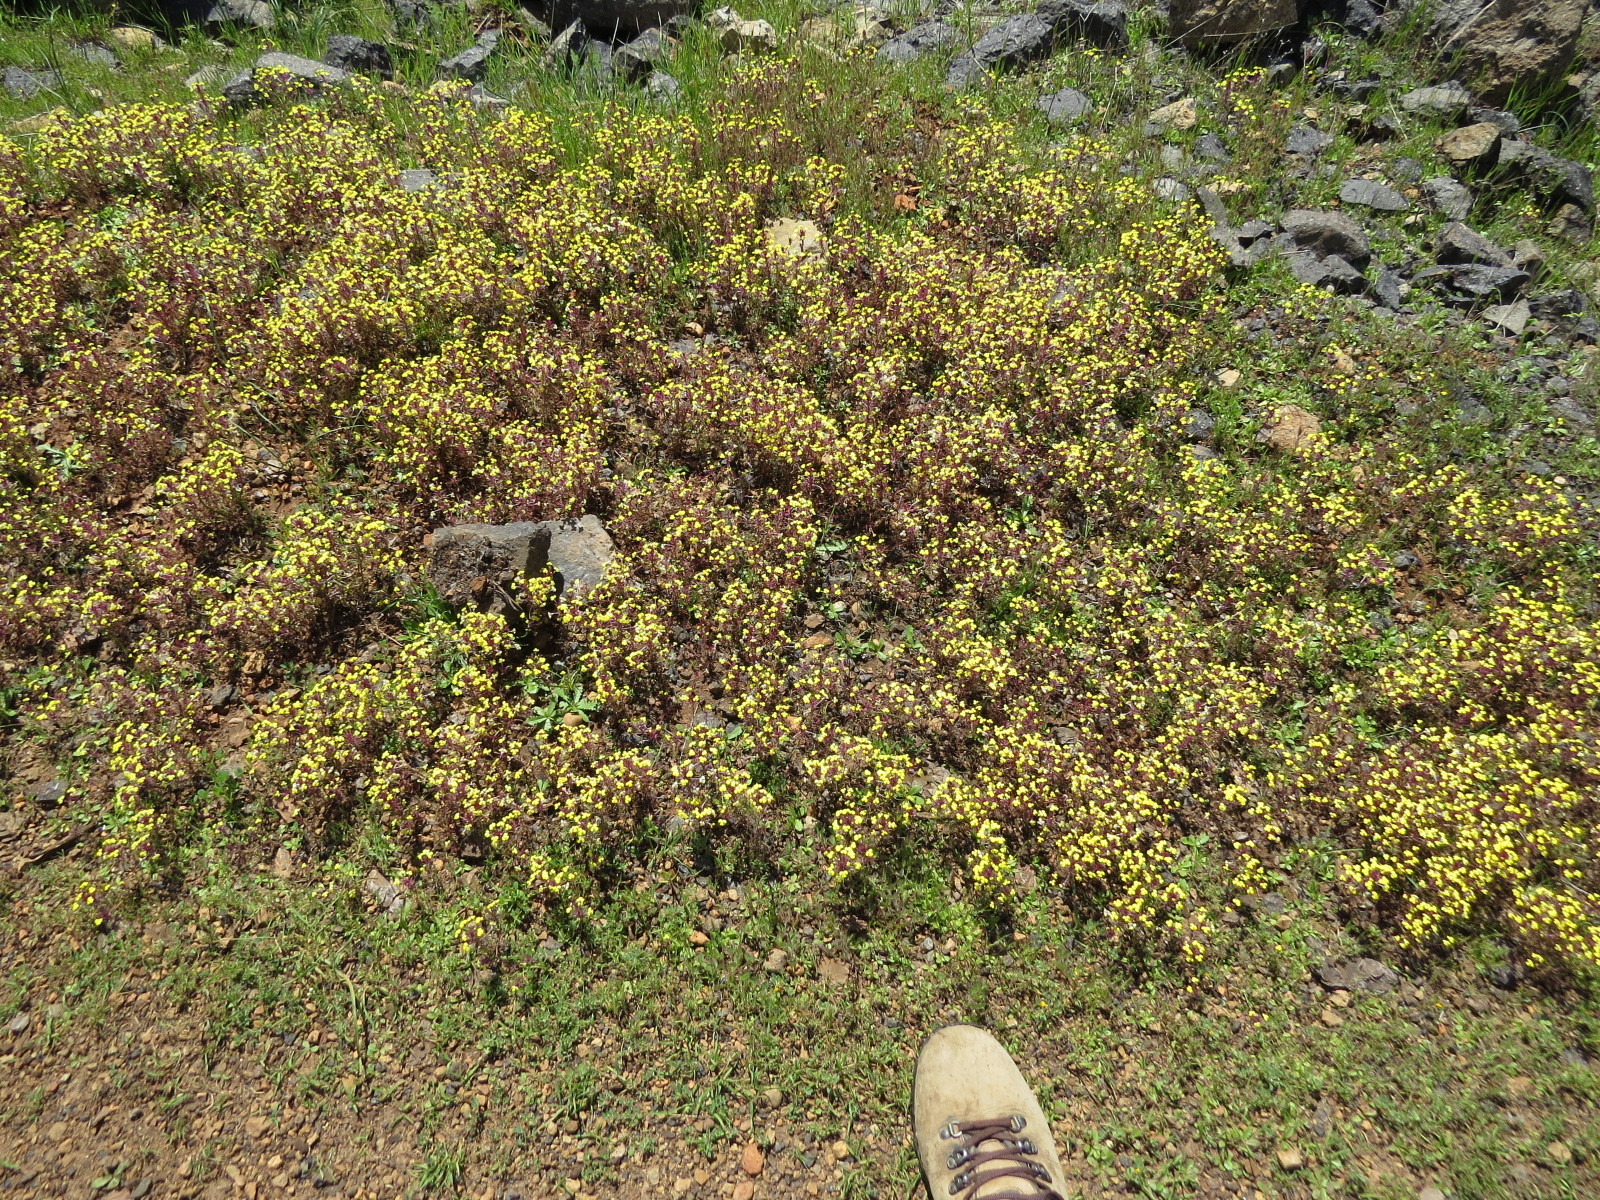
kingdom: Plantae
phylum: Tracheophyta
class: Magnoliopsida
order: Lamiales
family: Orobanchaceae
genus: Triphysaria
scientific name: Triphysaria eriantha
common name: Johnny-tuck
